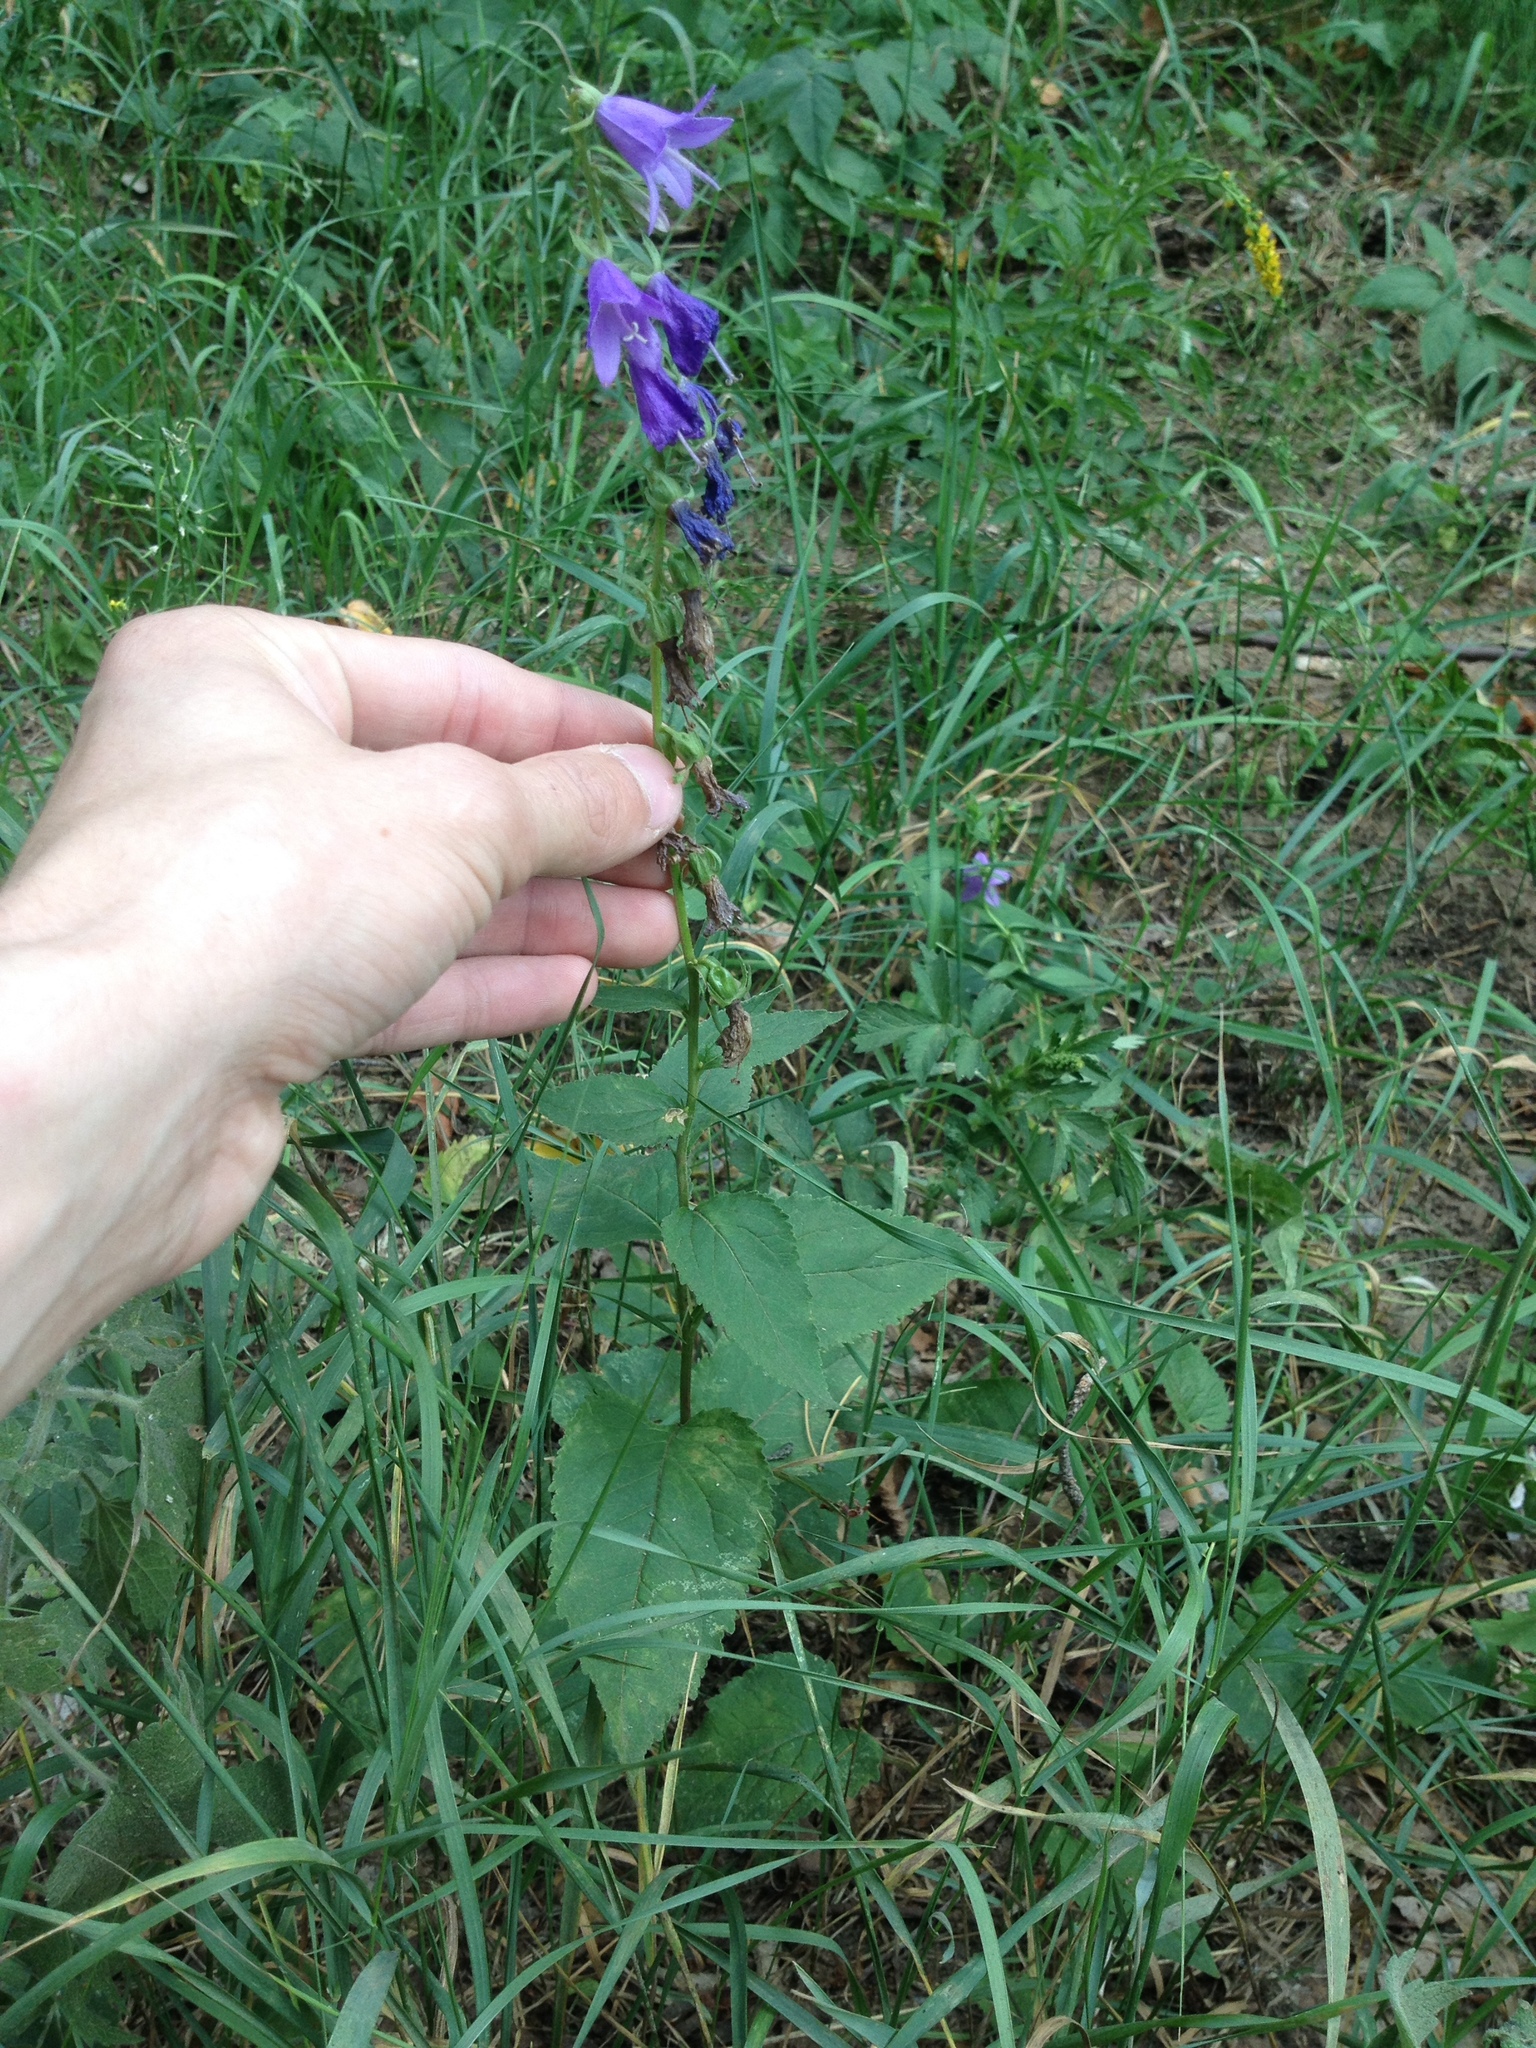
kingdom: Plantae
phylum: Tracheophyta
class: Magnoliopsida
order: Asterales
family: Campanulaceae
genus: Campanula
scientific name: Campanula rapunculoides
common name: Creeping bellflower
